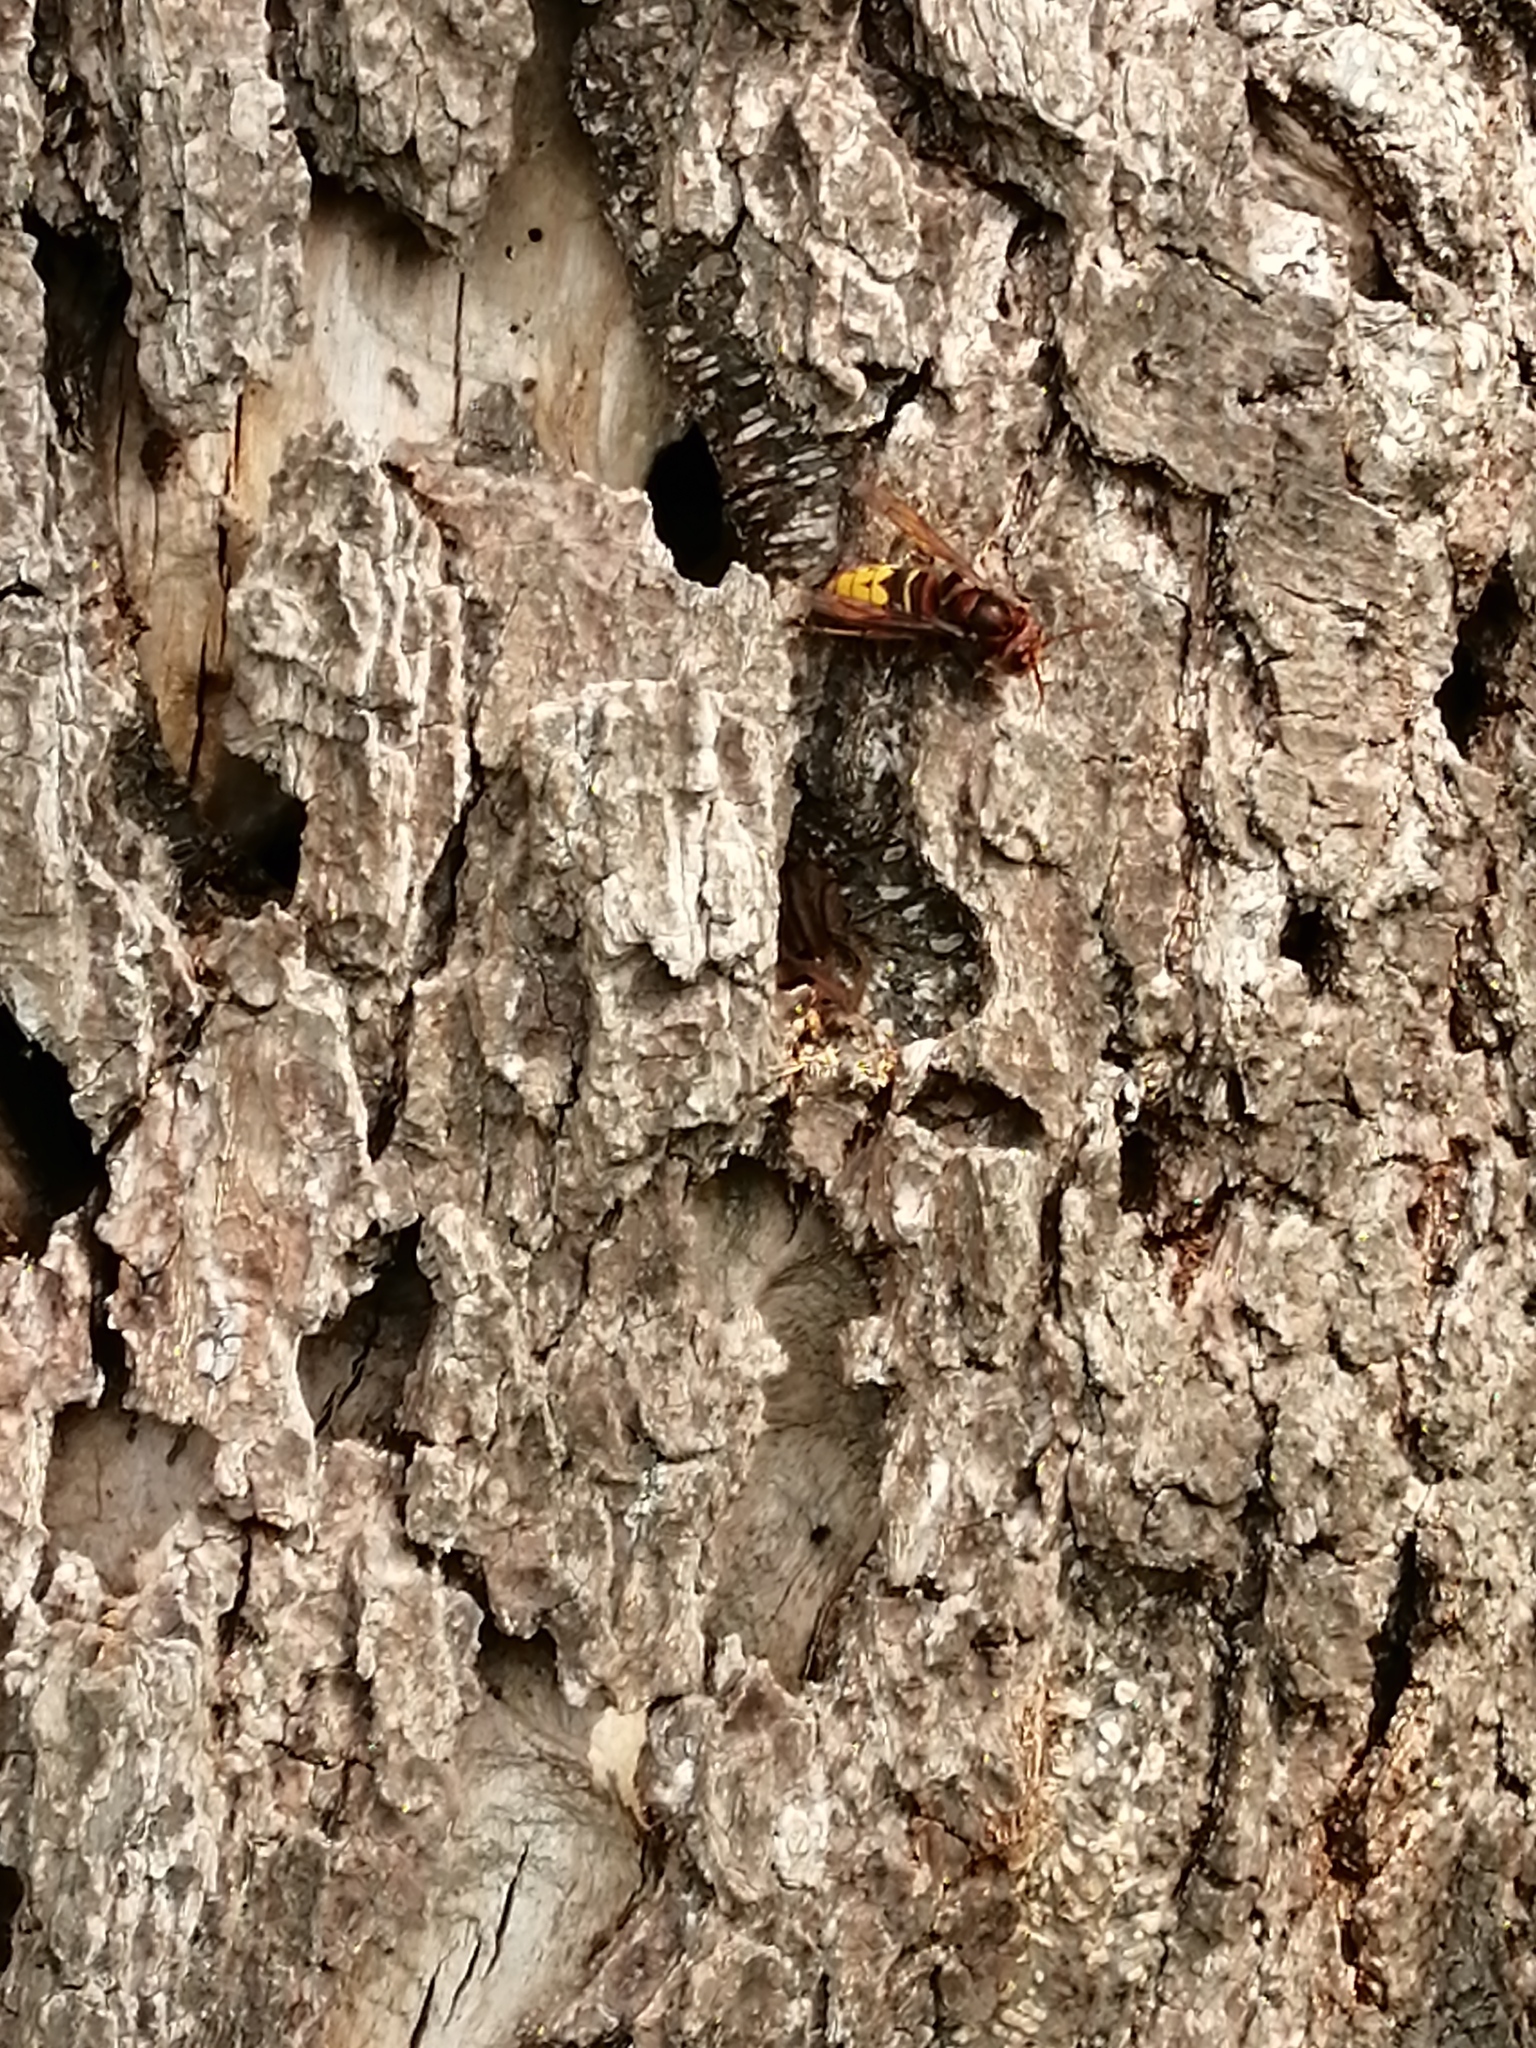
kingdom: Animalia
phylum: Arthropoda
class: Insecta
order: Hymenoptera
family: Vespidae
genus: Vespa
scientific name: Vespa crabro
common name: Hornet
